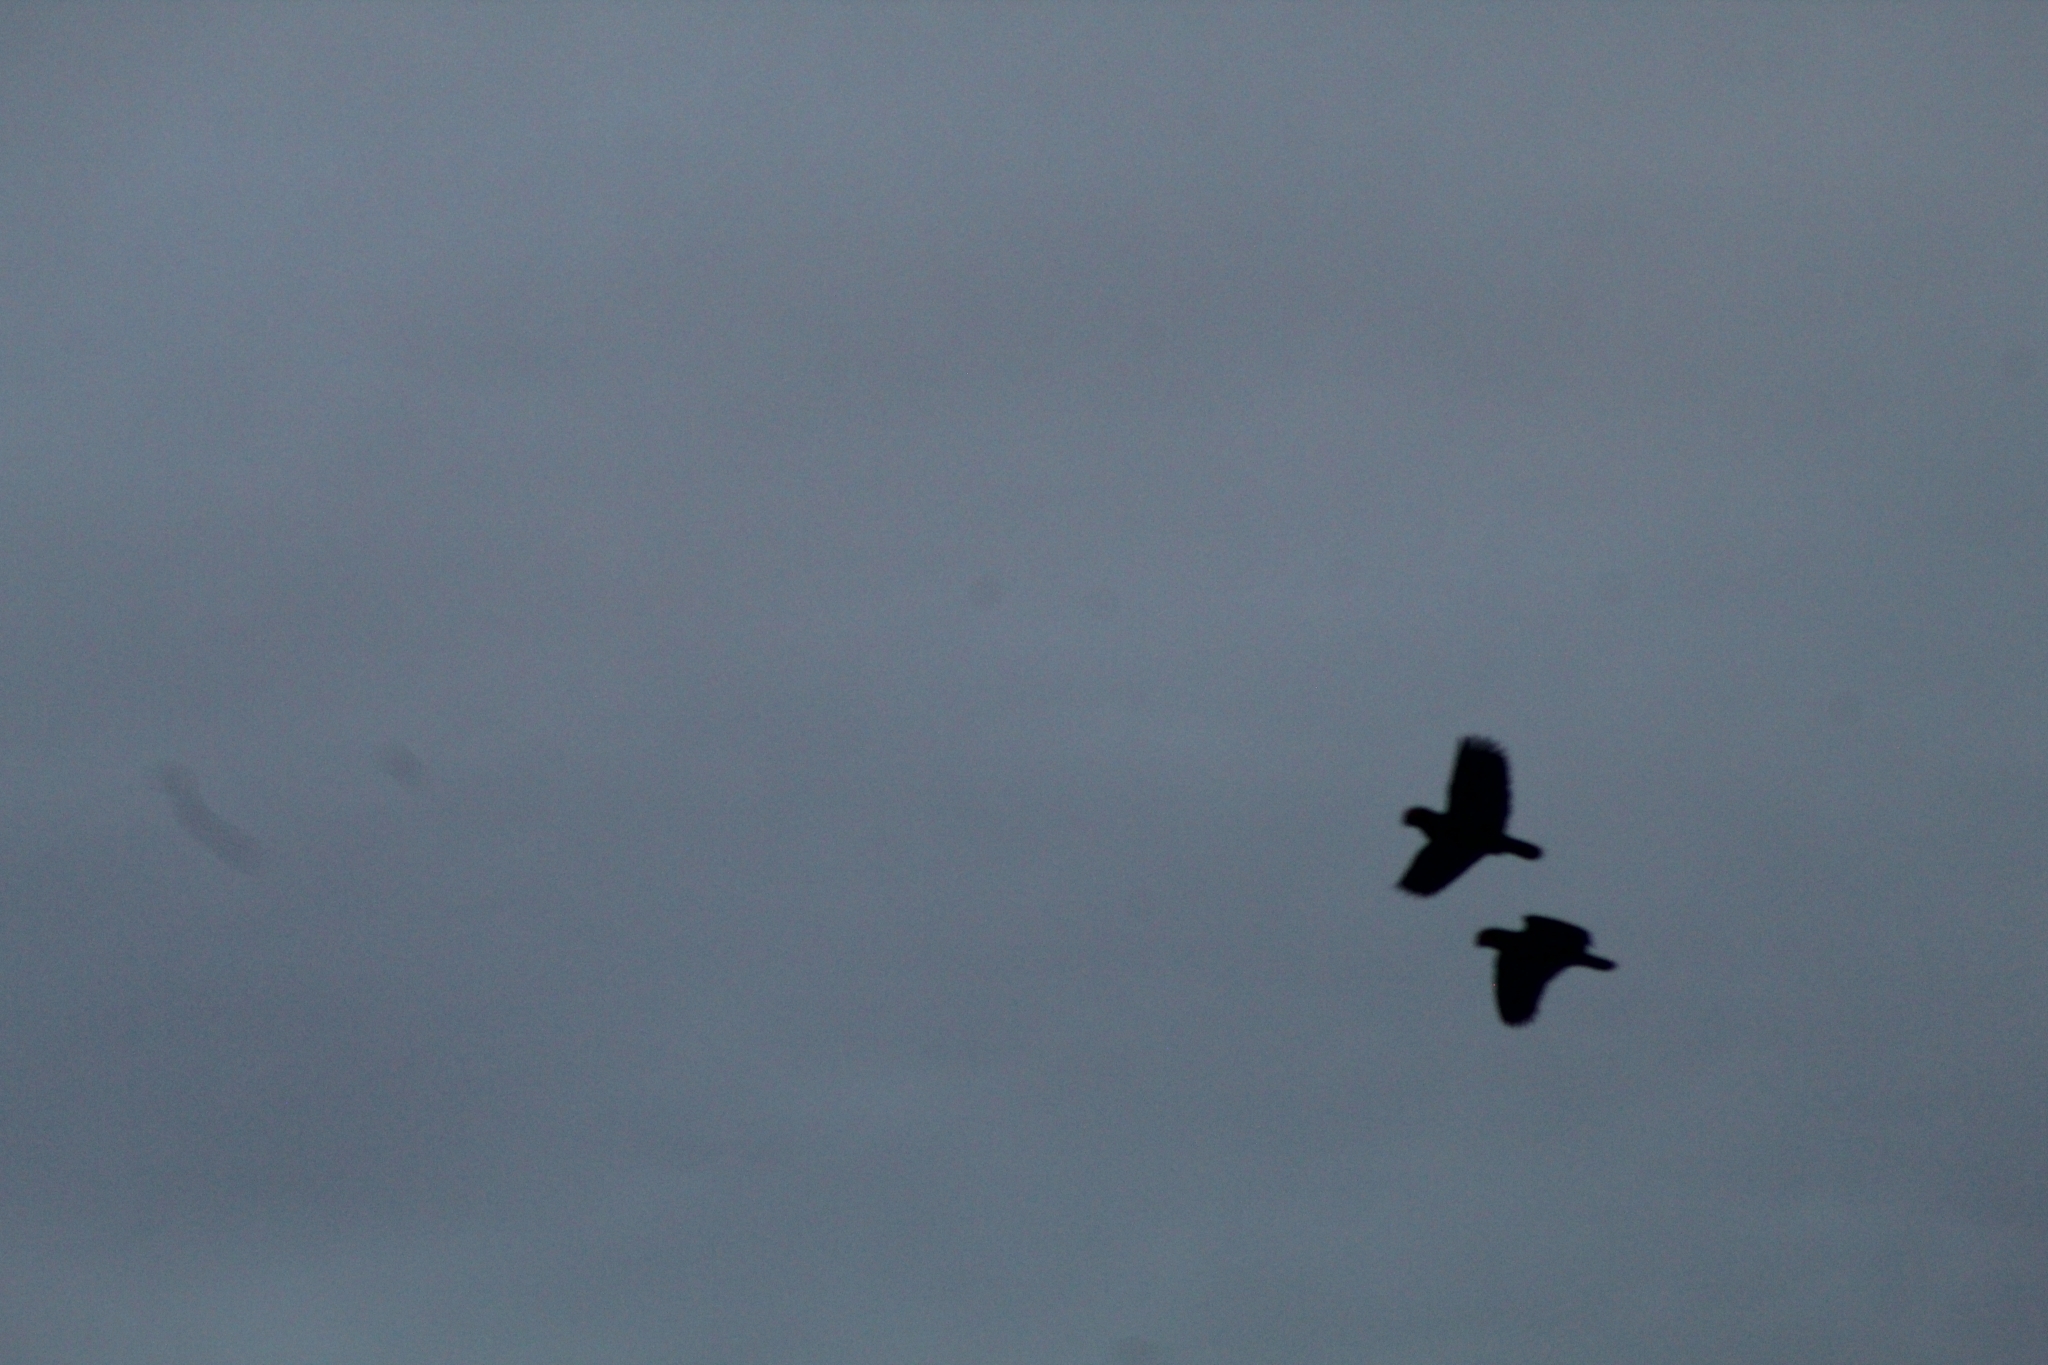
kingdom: Animalia
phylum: Chordata
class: Aves
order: Psittaciformes
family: Psittacidae
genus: Amazona
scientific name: Amazona
